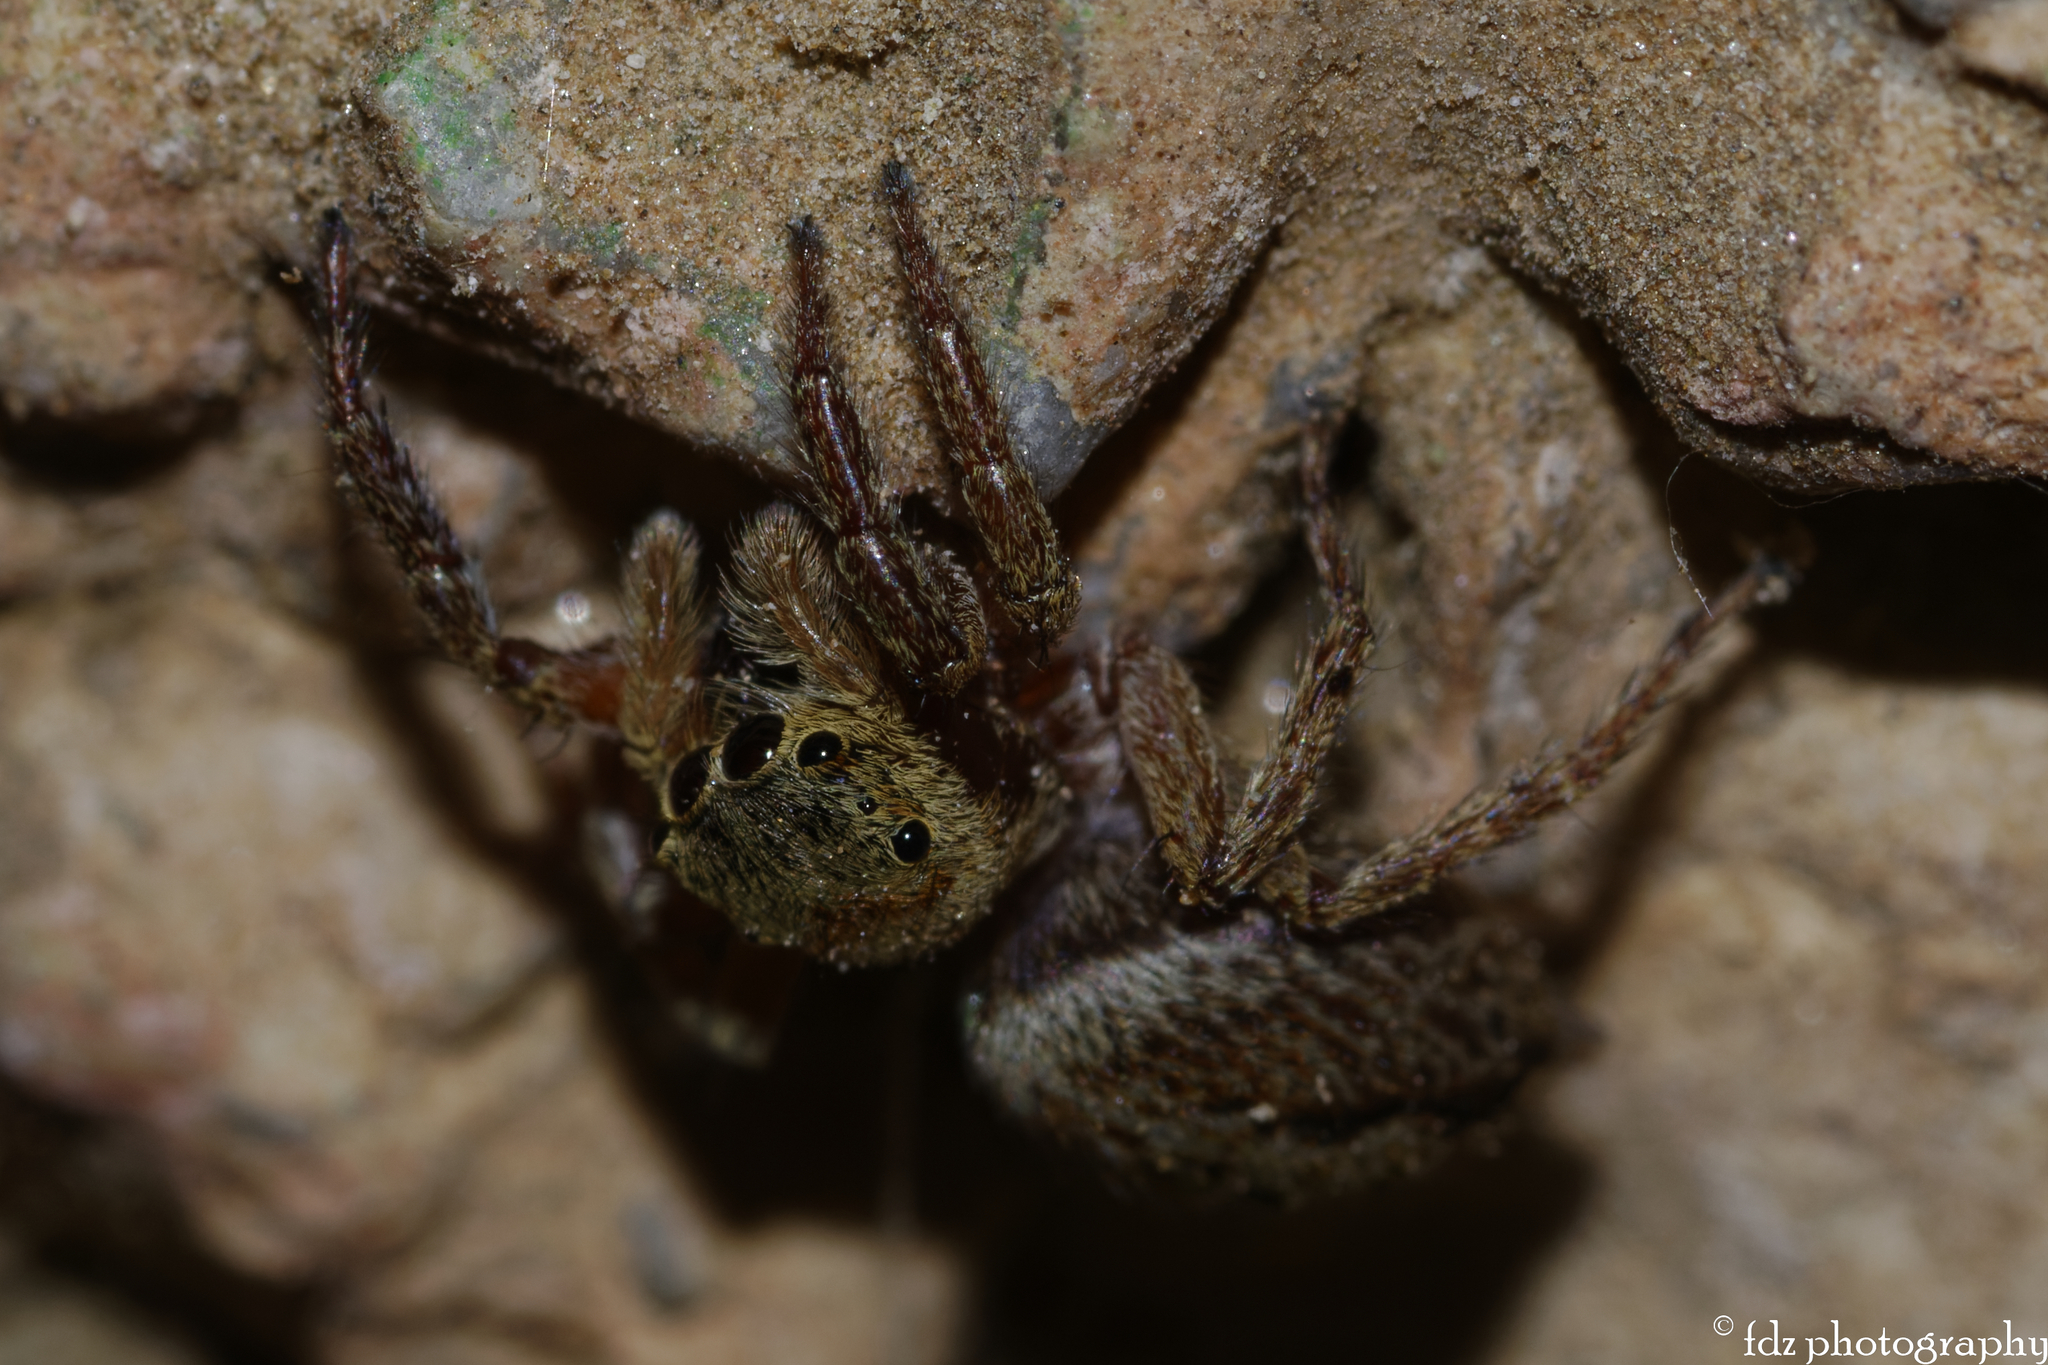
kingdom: Animalia
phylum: Arthropoda
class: Arachnida
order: Araneae
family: Salticidae
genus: Hasarius
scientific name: Hasarius adansoni
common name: Jumping spider
